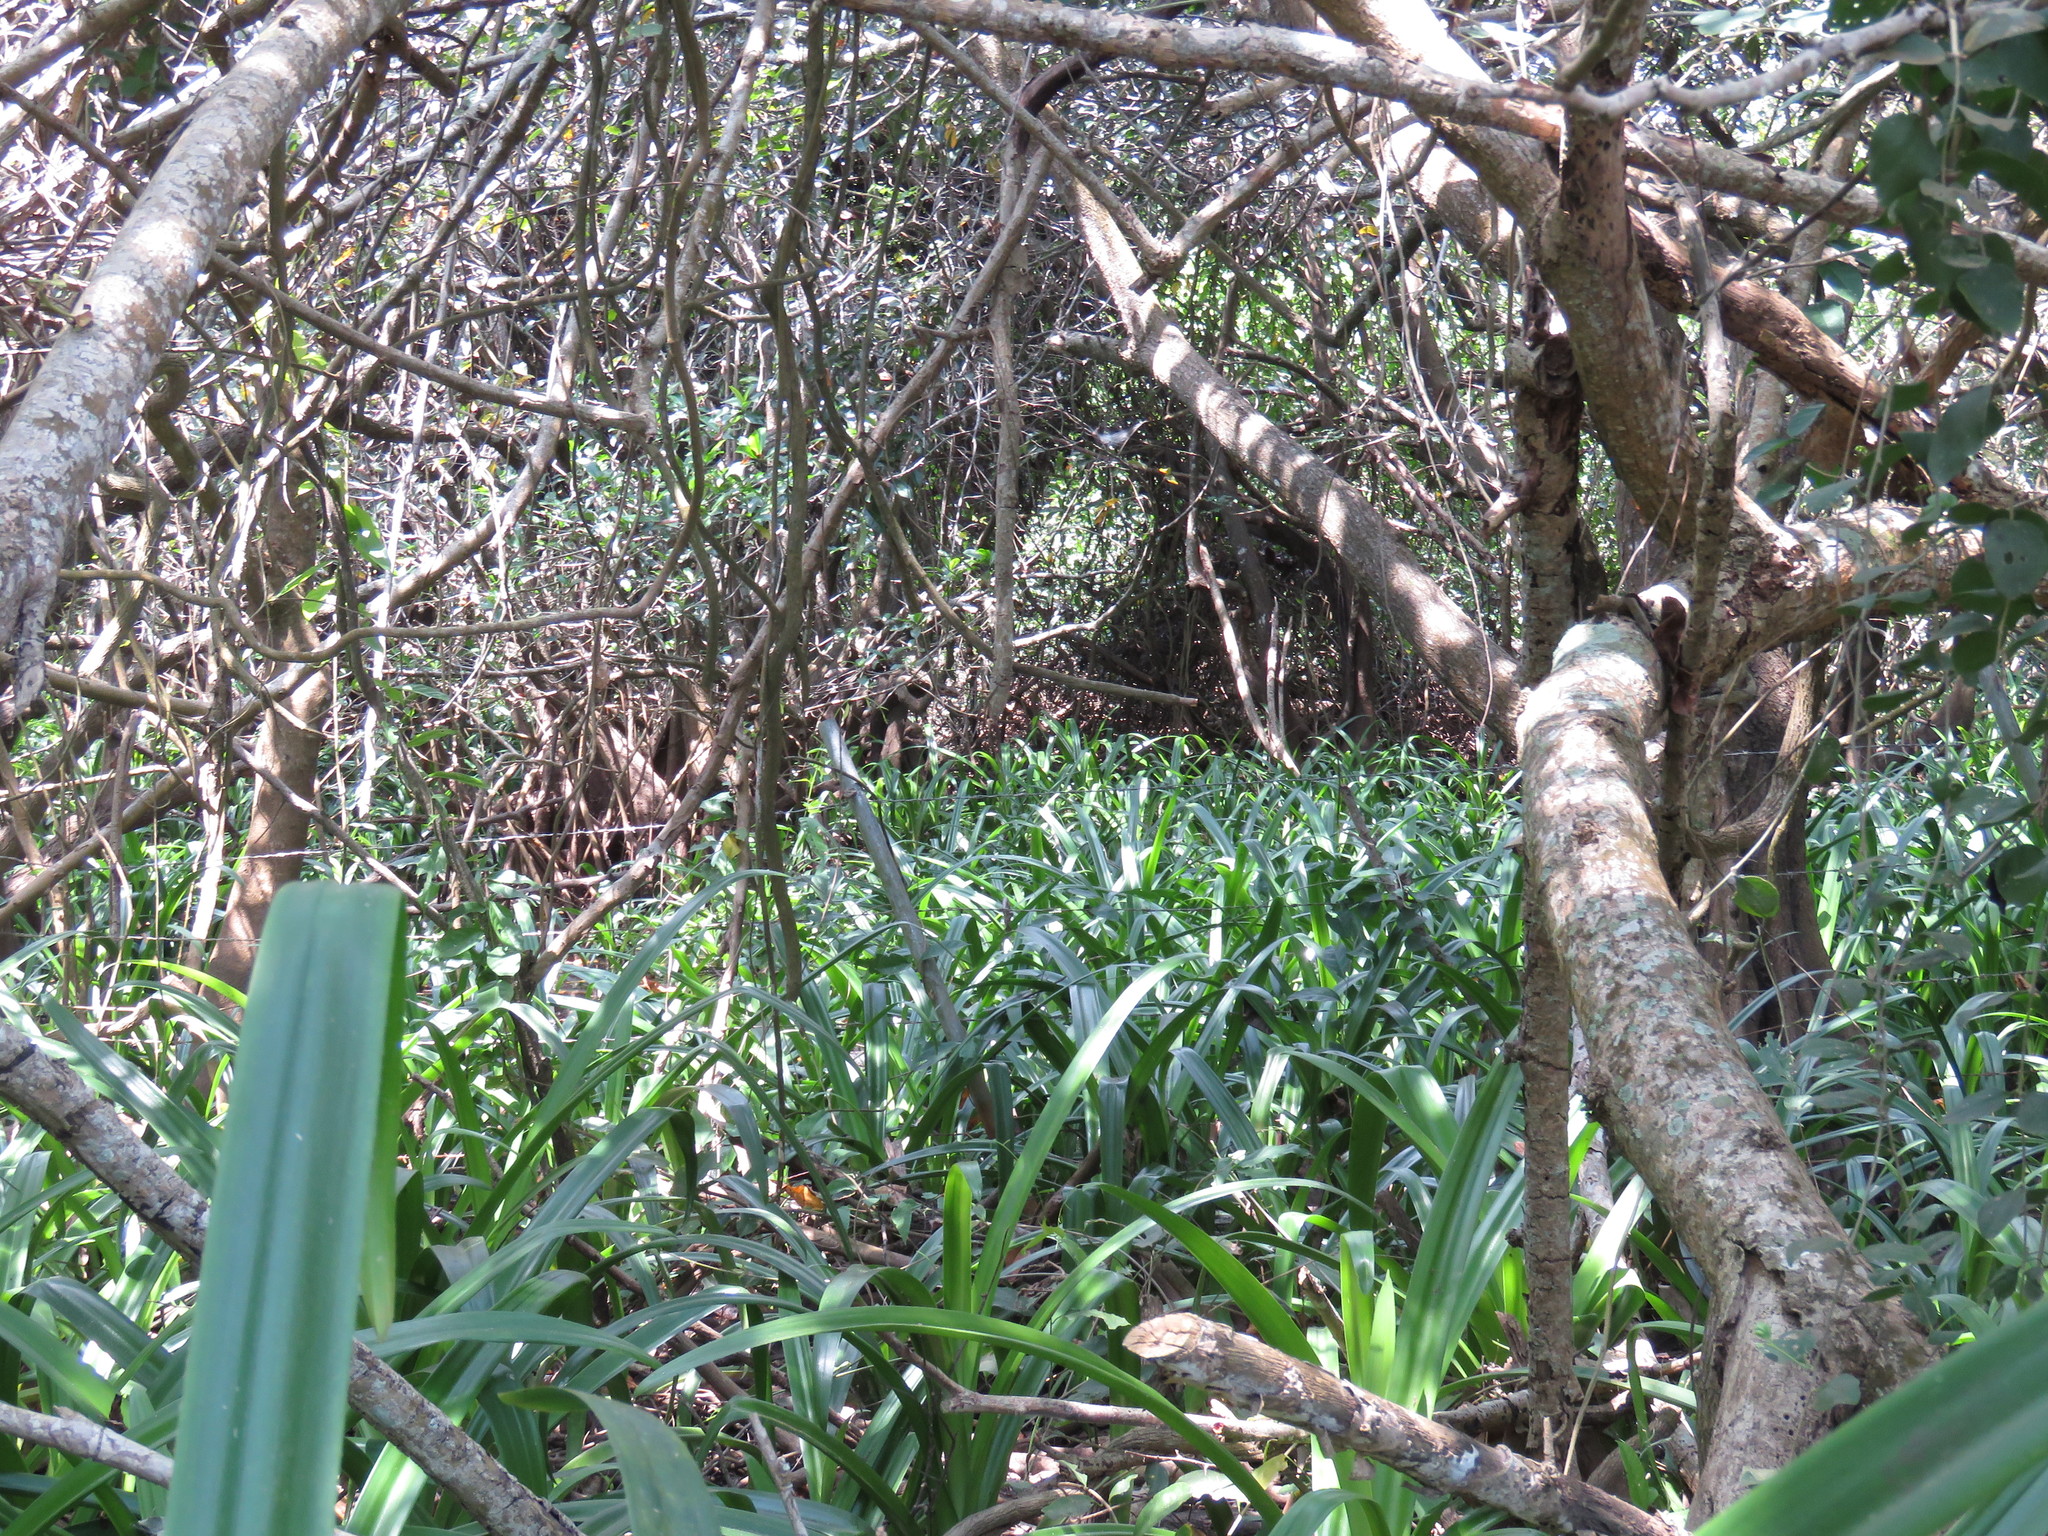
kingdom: Plantae
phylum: Tracheophyta
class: Liliopsida
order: Asparagales
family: Amaryllidaceae
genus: Hymenocallis
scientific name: Hymenocallis concinna
